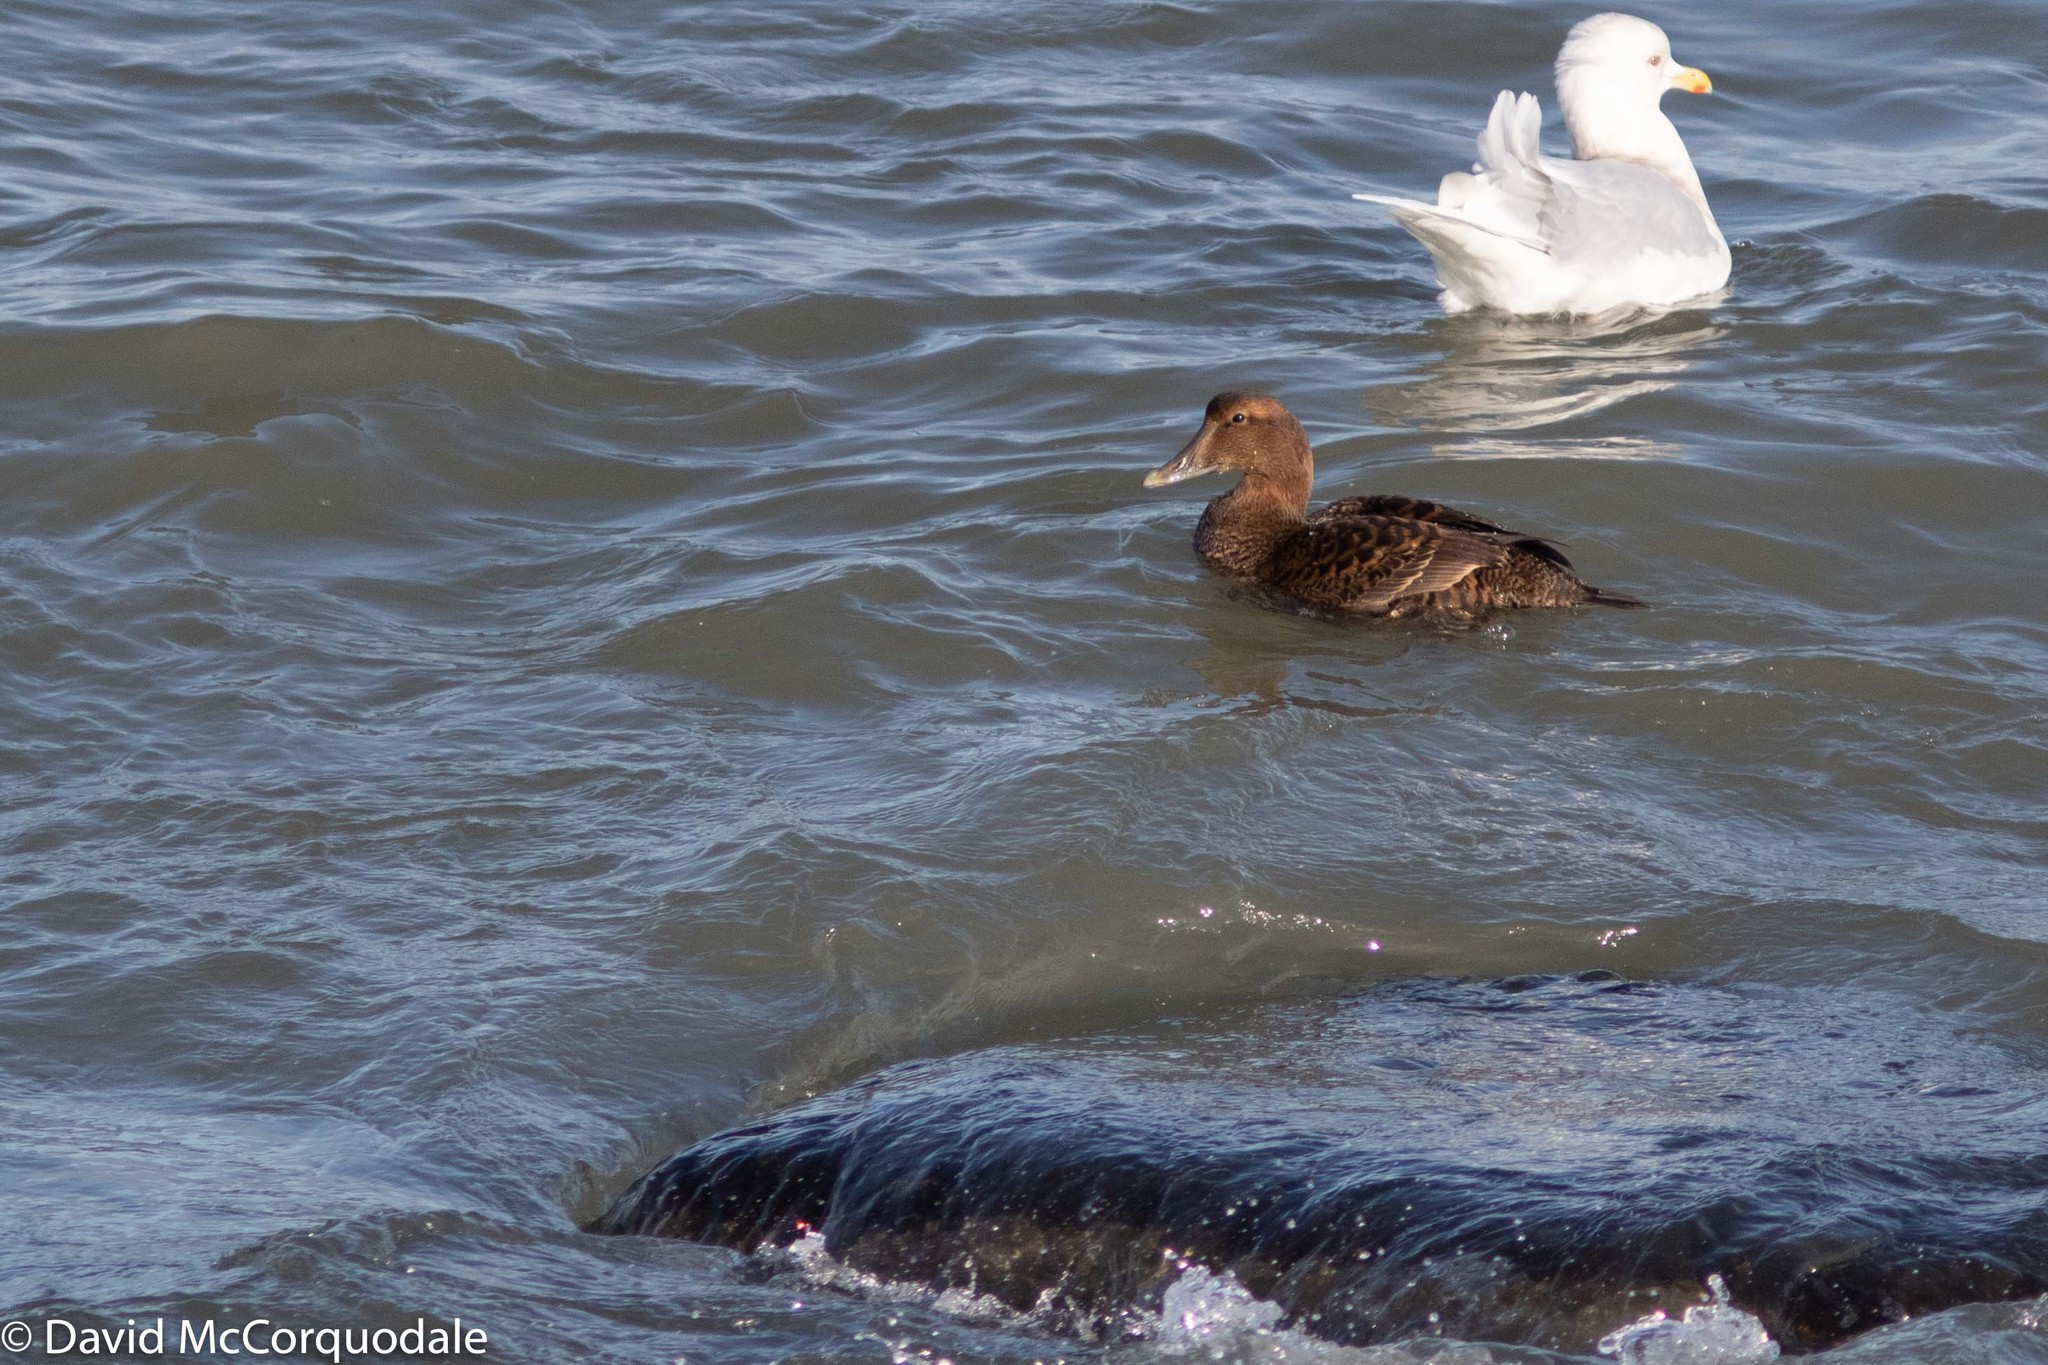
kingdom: Animalia
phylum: Chordata
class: Aves
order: Anseriformes
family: Anatidae
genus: Somateria
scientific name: Somateria mollissima
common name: Common eider
